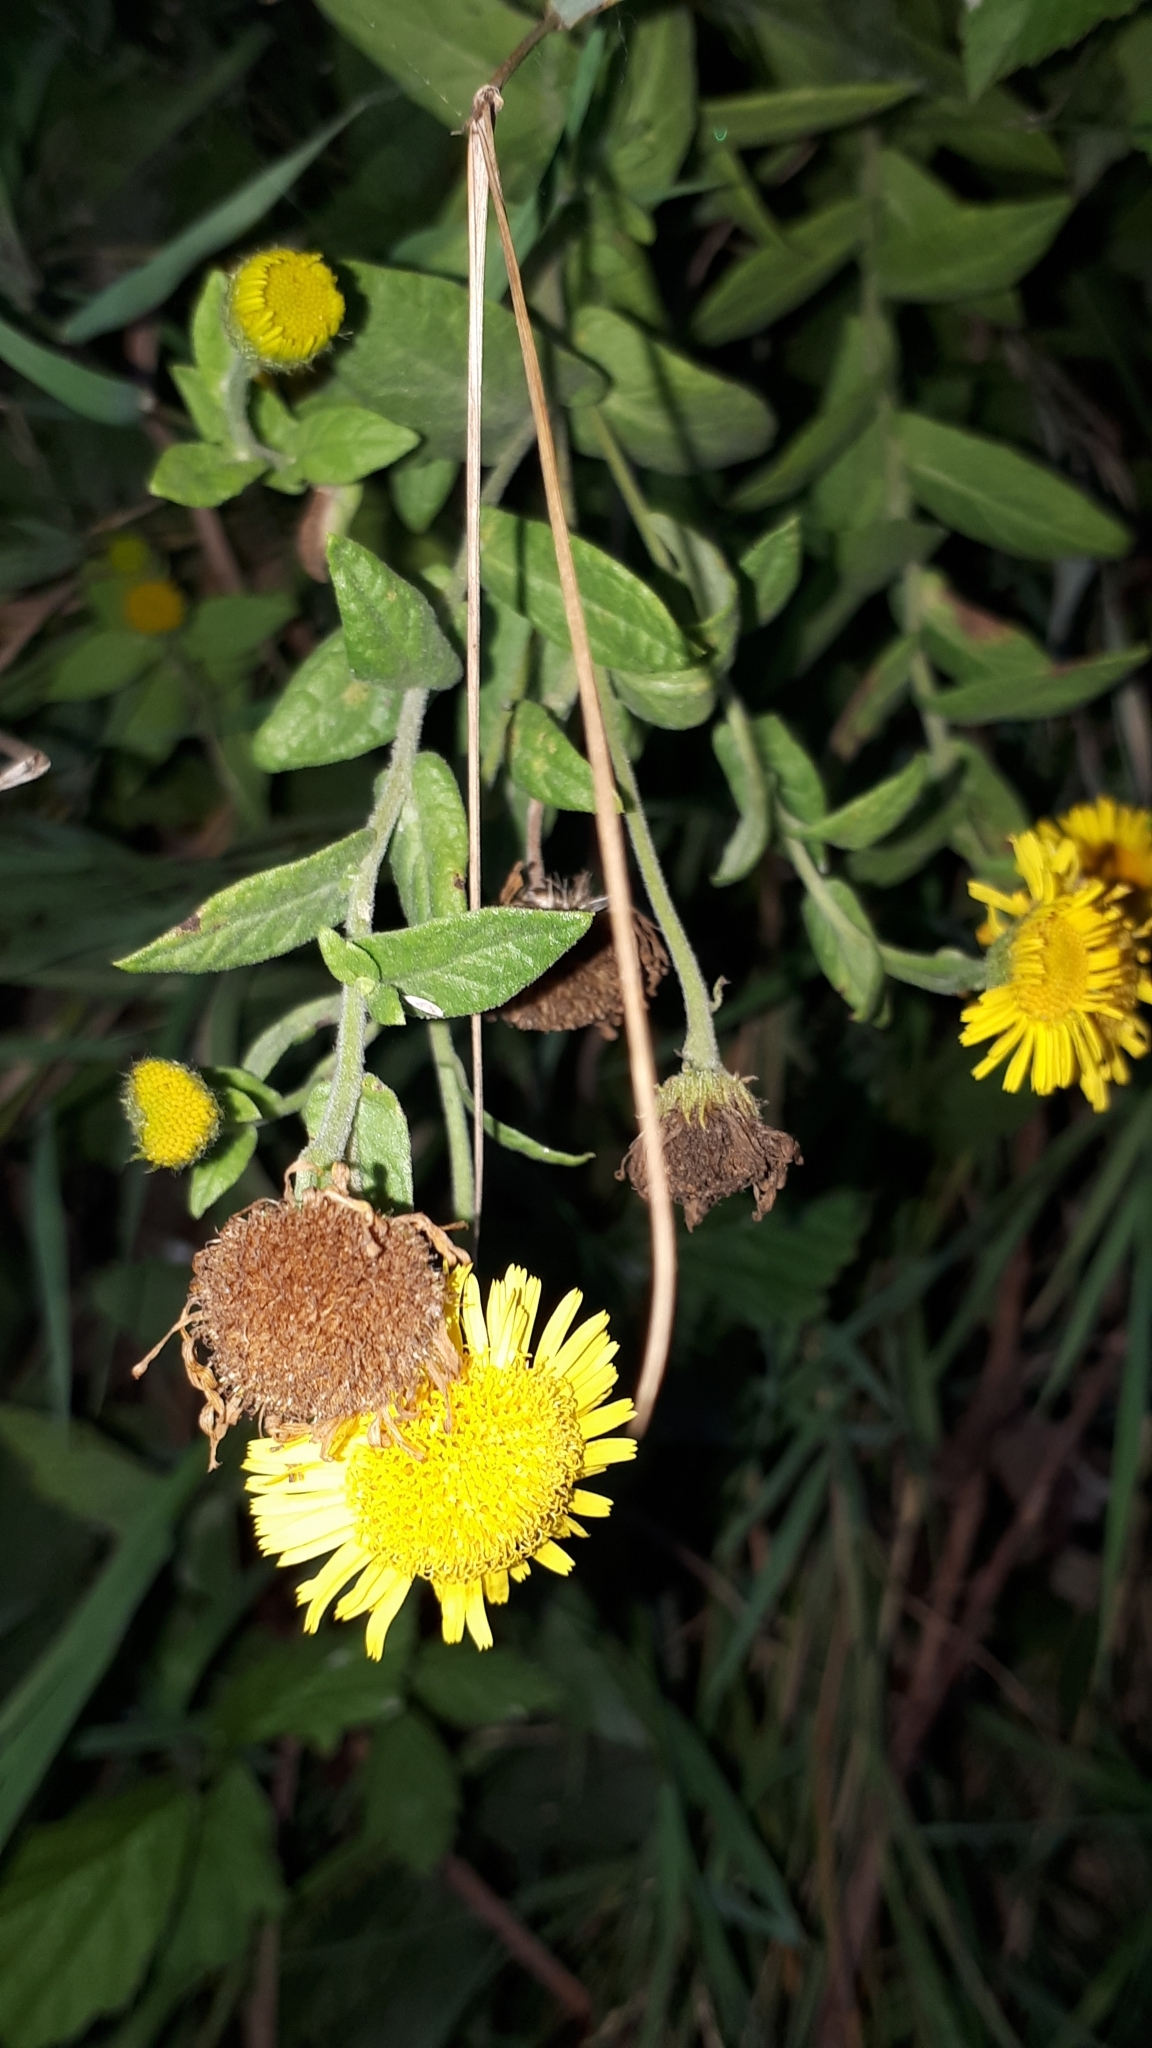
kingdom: Plantae
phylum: Tracheophyta
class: Magnoliopsida
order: Asterales
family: Asteraceae
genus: Pulicaria
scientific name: Pulicaria dysenterica
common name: Common fleabane
